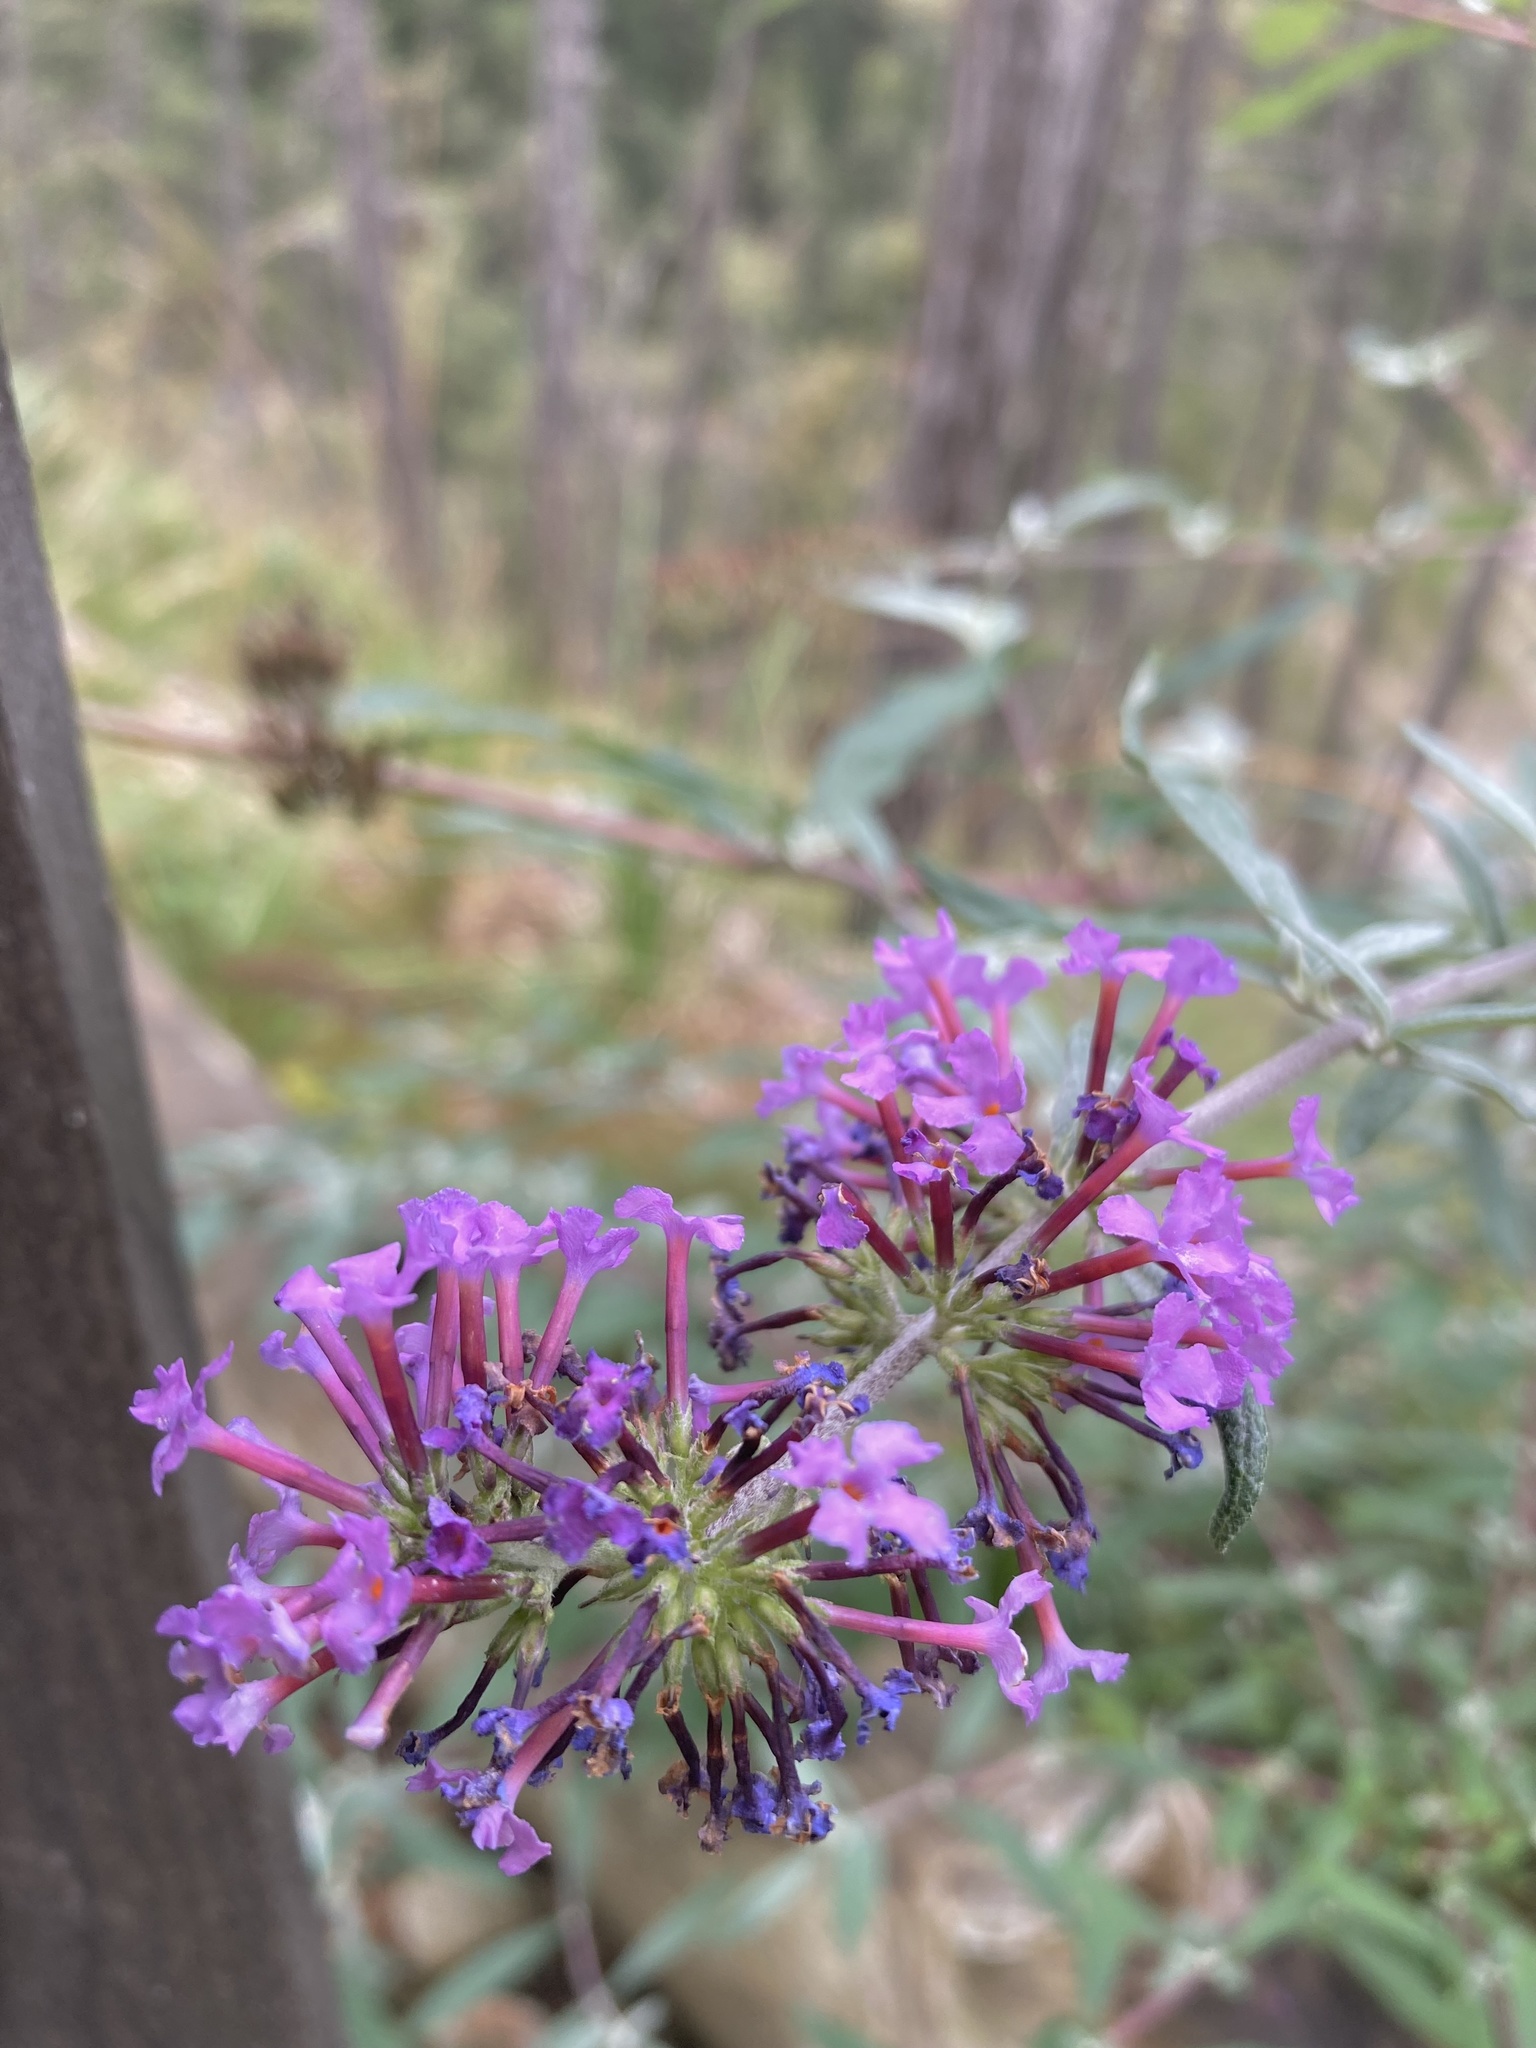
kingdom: Plantae
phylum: Tracheophyta
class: Magnoliopsida
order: Lamiales
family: Scrophulariaceae
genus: Buddleja
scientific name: Buddleja davidii
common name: Butterfly-bush
